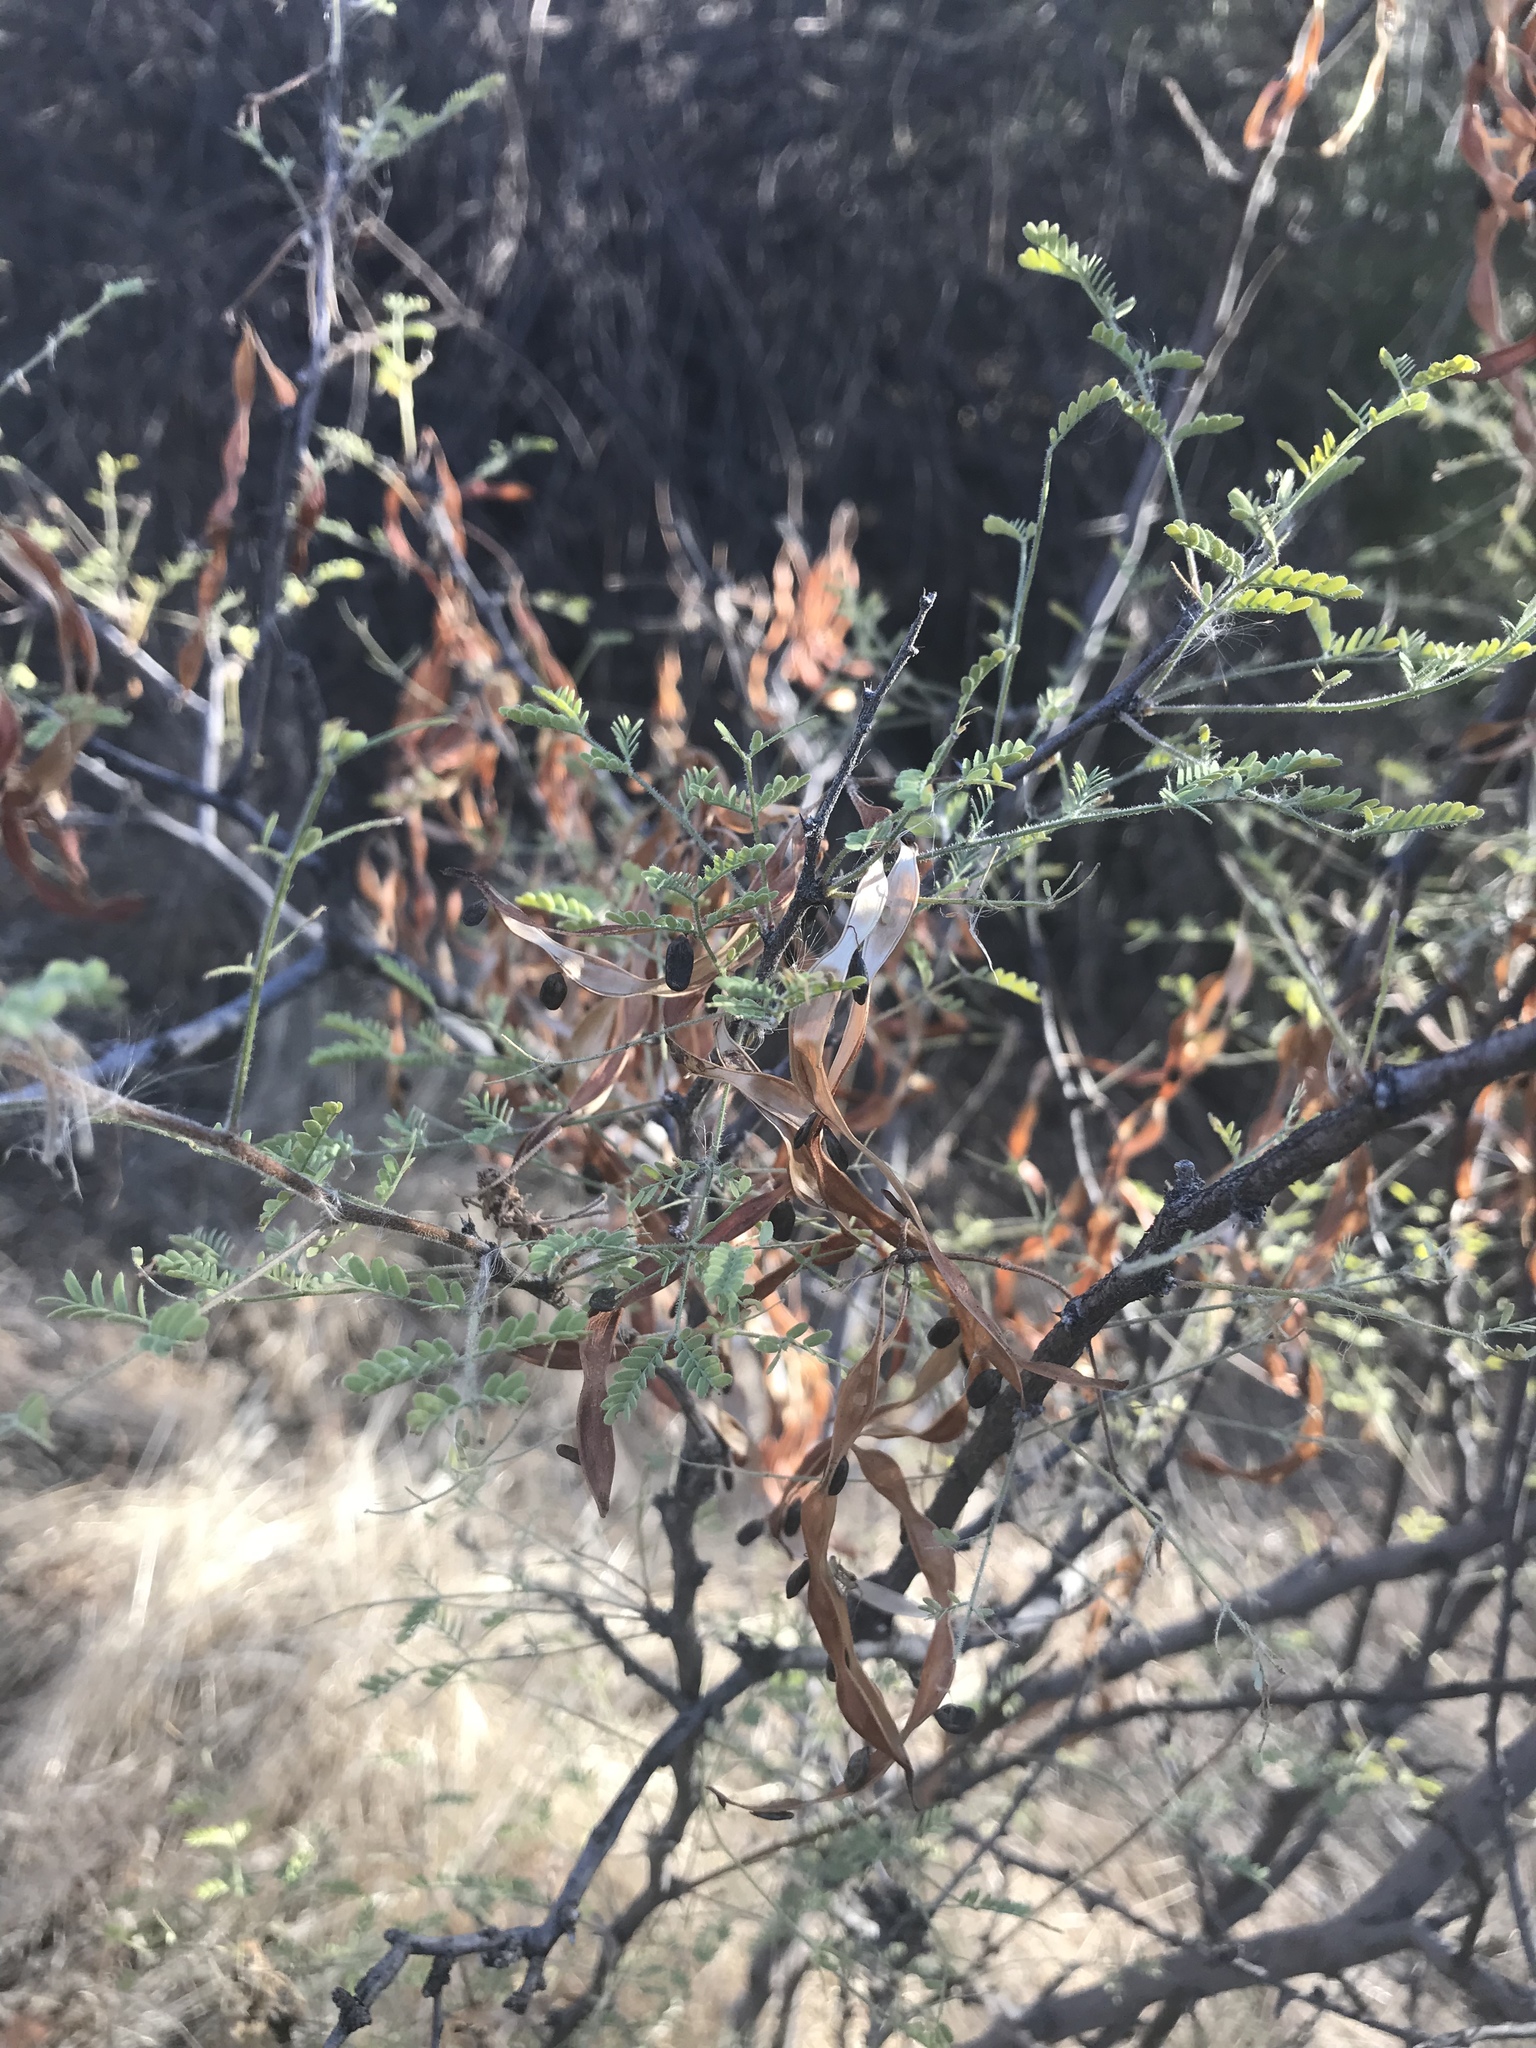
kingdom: Plantae
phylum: Tracheophyta
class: Magnoliopsida
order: Fabales
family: Fabaceae
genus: Vachellia
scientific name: Vachellia constricta
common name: Mescat acacia
